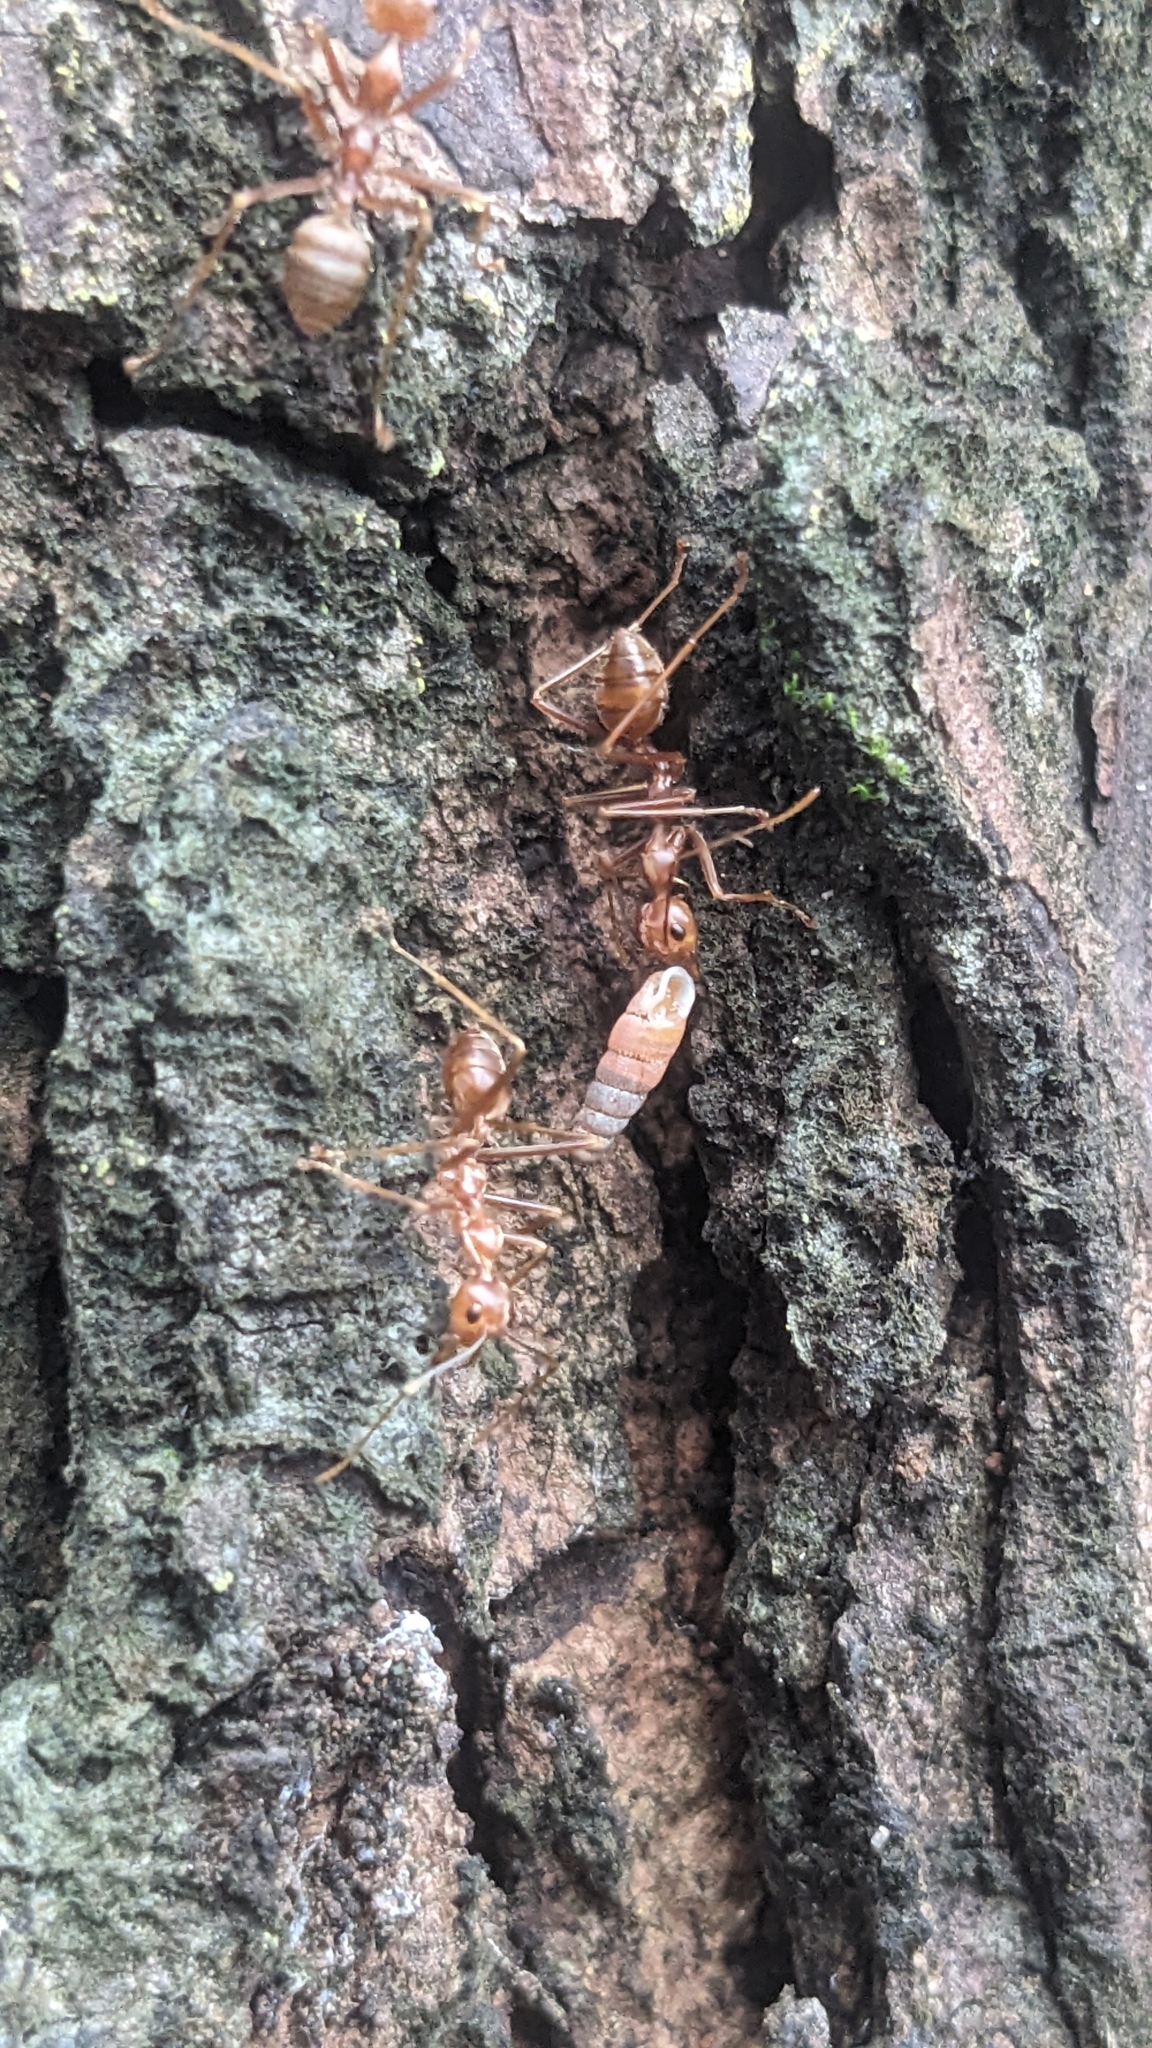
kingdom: Animalia
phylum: Arthropoda
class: Insecta
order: Hymenoptera
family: Formicidae
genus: Oecophylla
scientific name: Oecophylla smaragdina
